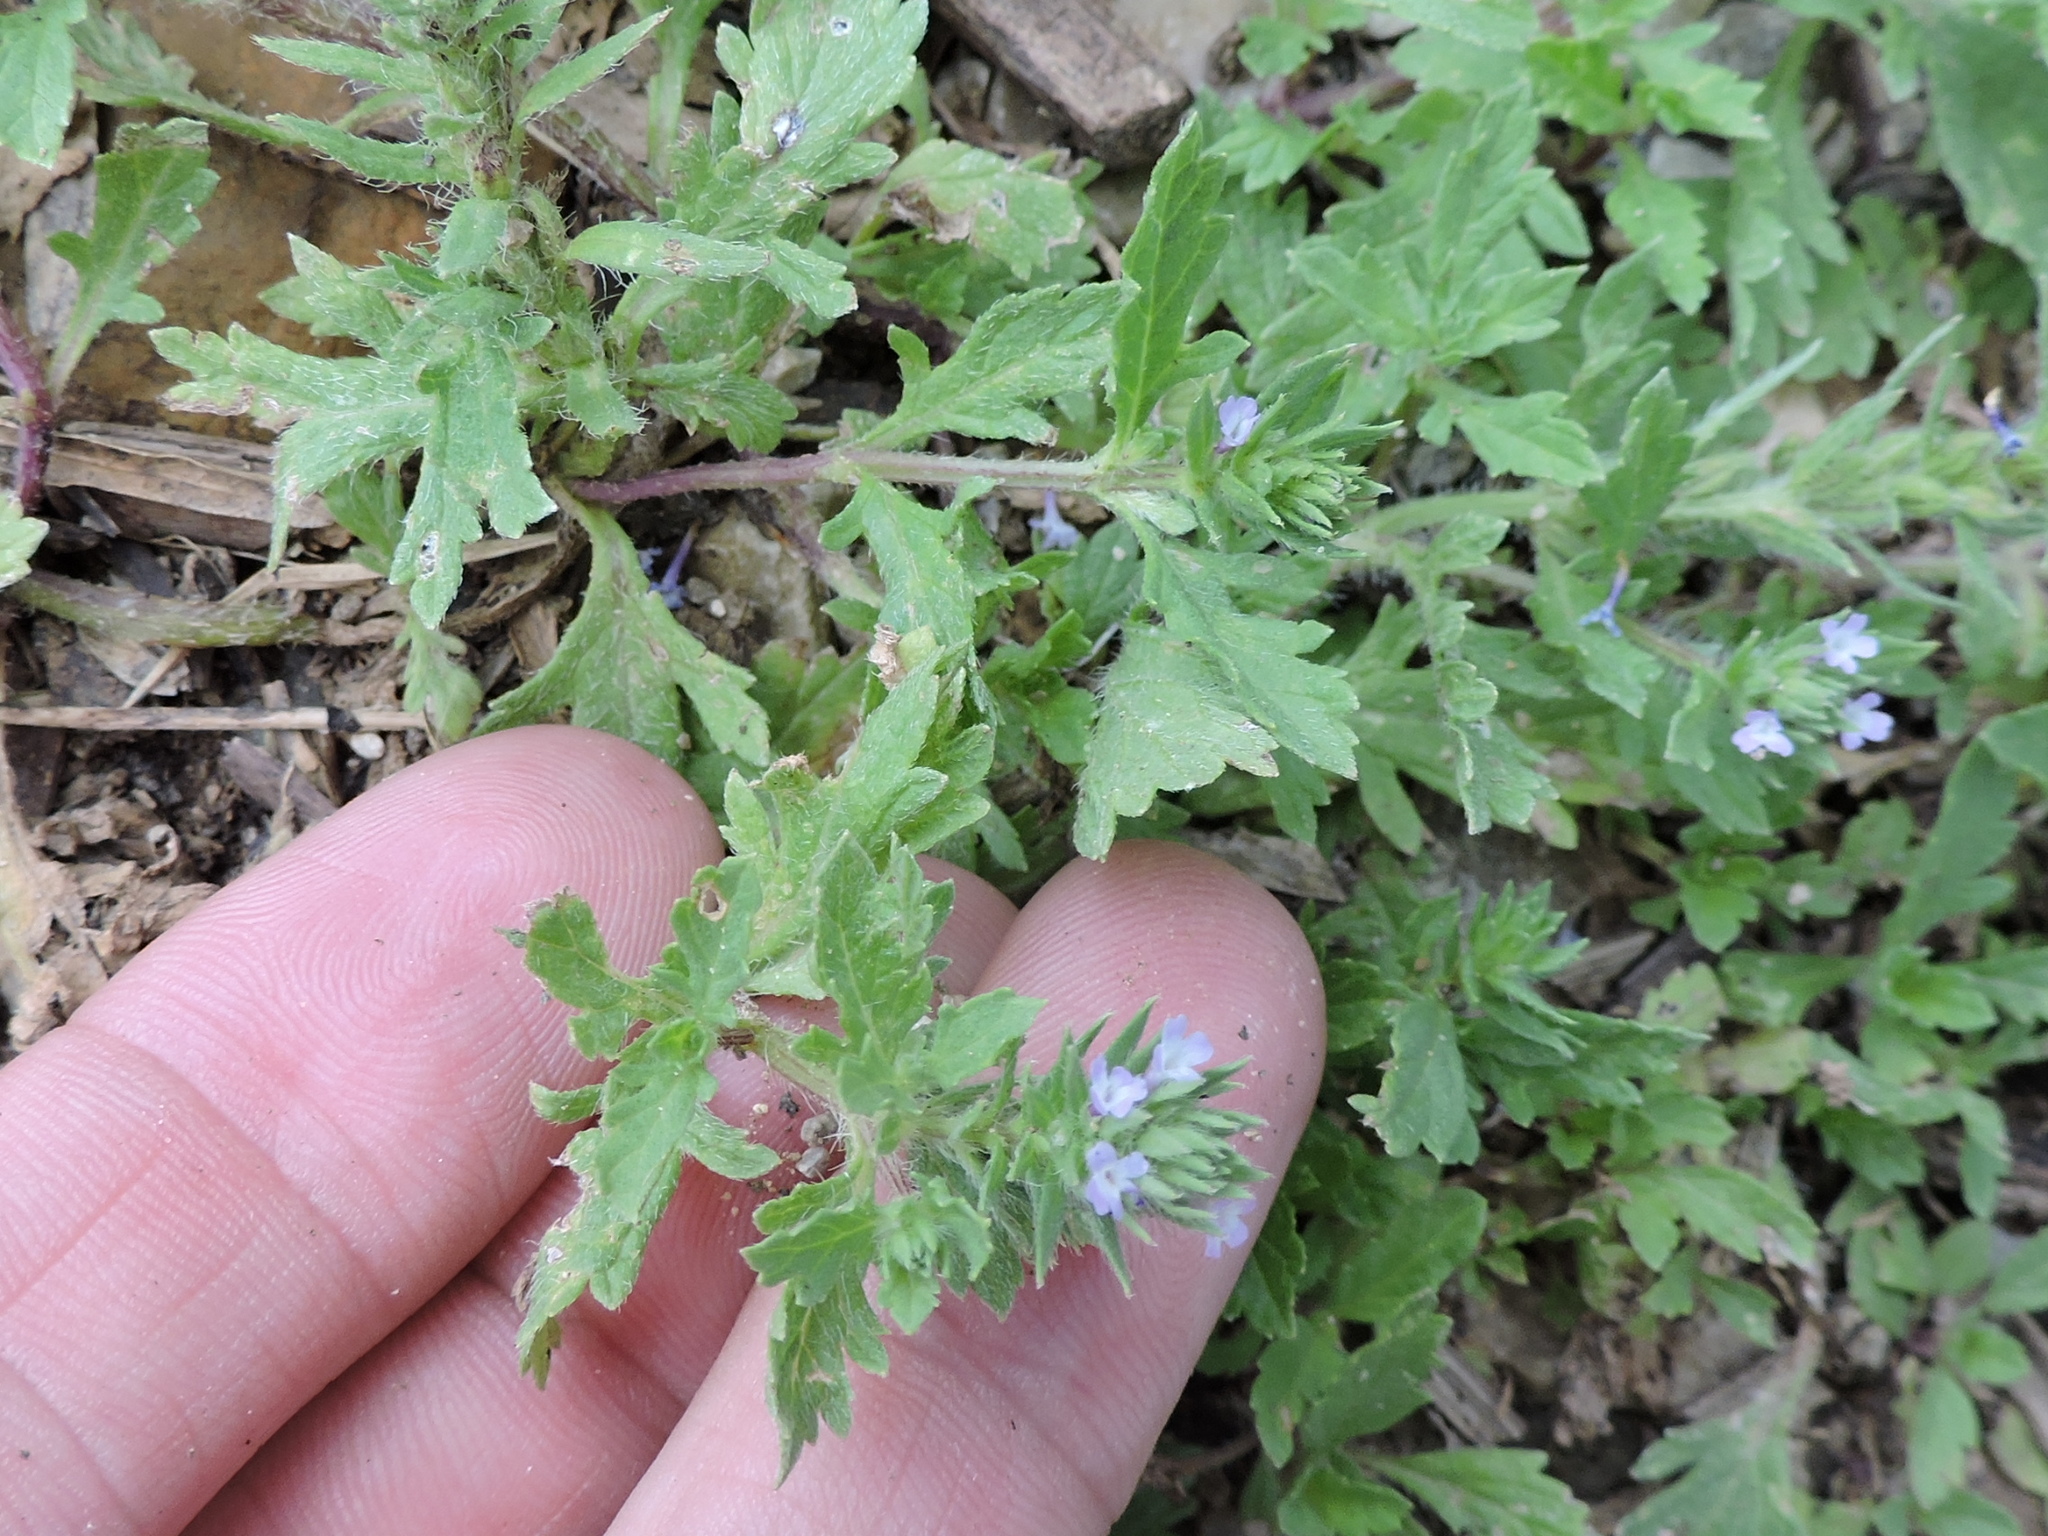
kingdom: Plantae
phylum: Tracheophyta
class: Magnoliopsida
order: Lamiales
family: Verbenaceae
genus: Verbena
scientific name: Verbena bracteata
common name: Bracted vervain
